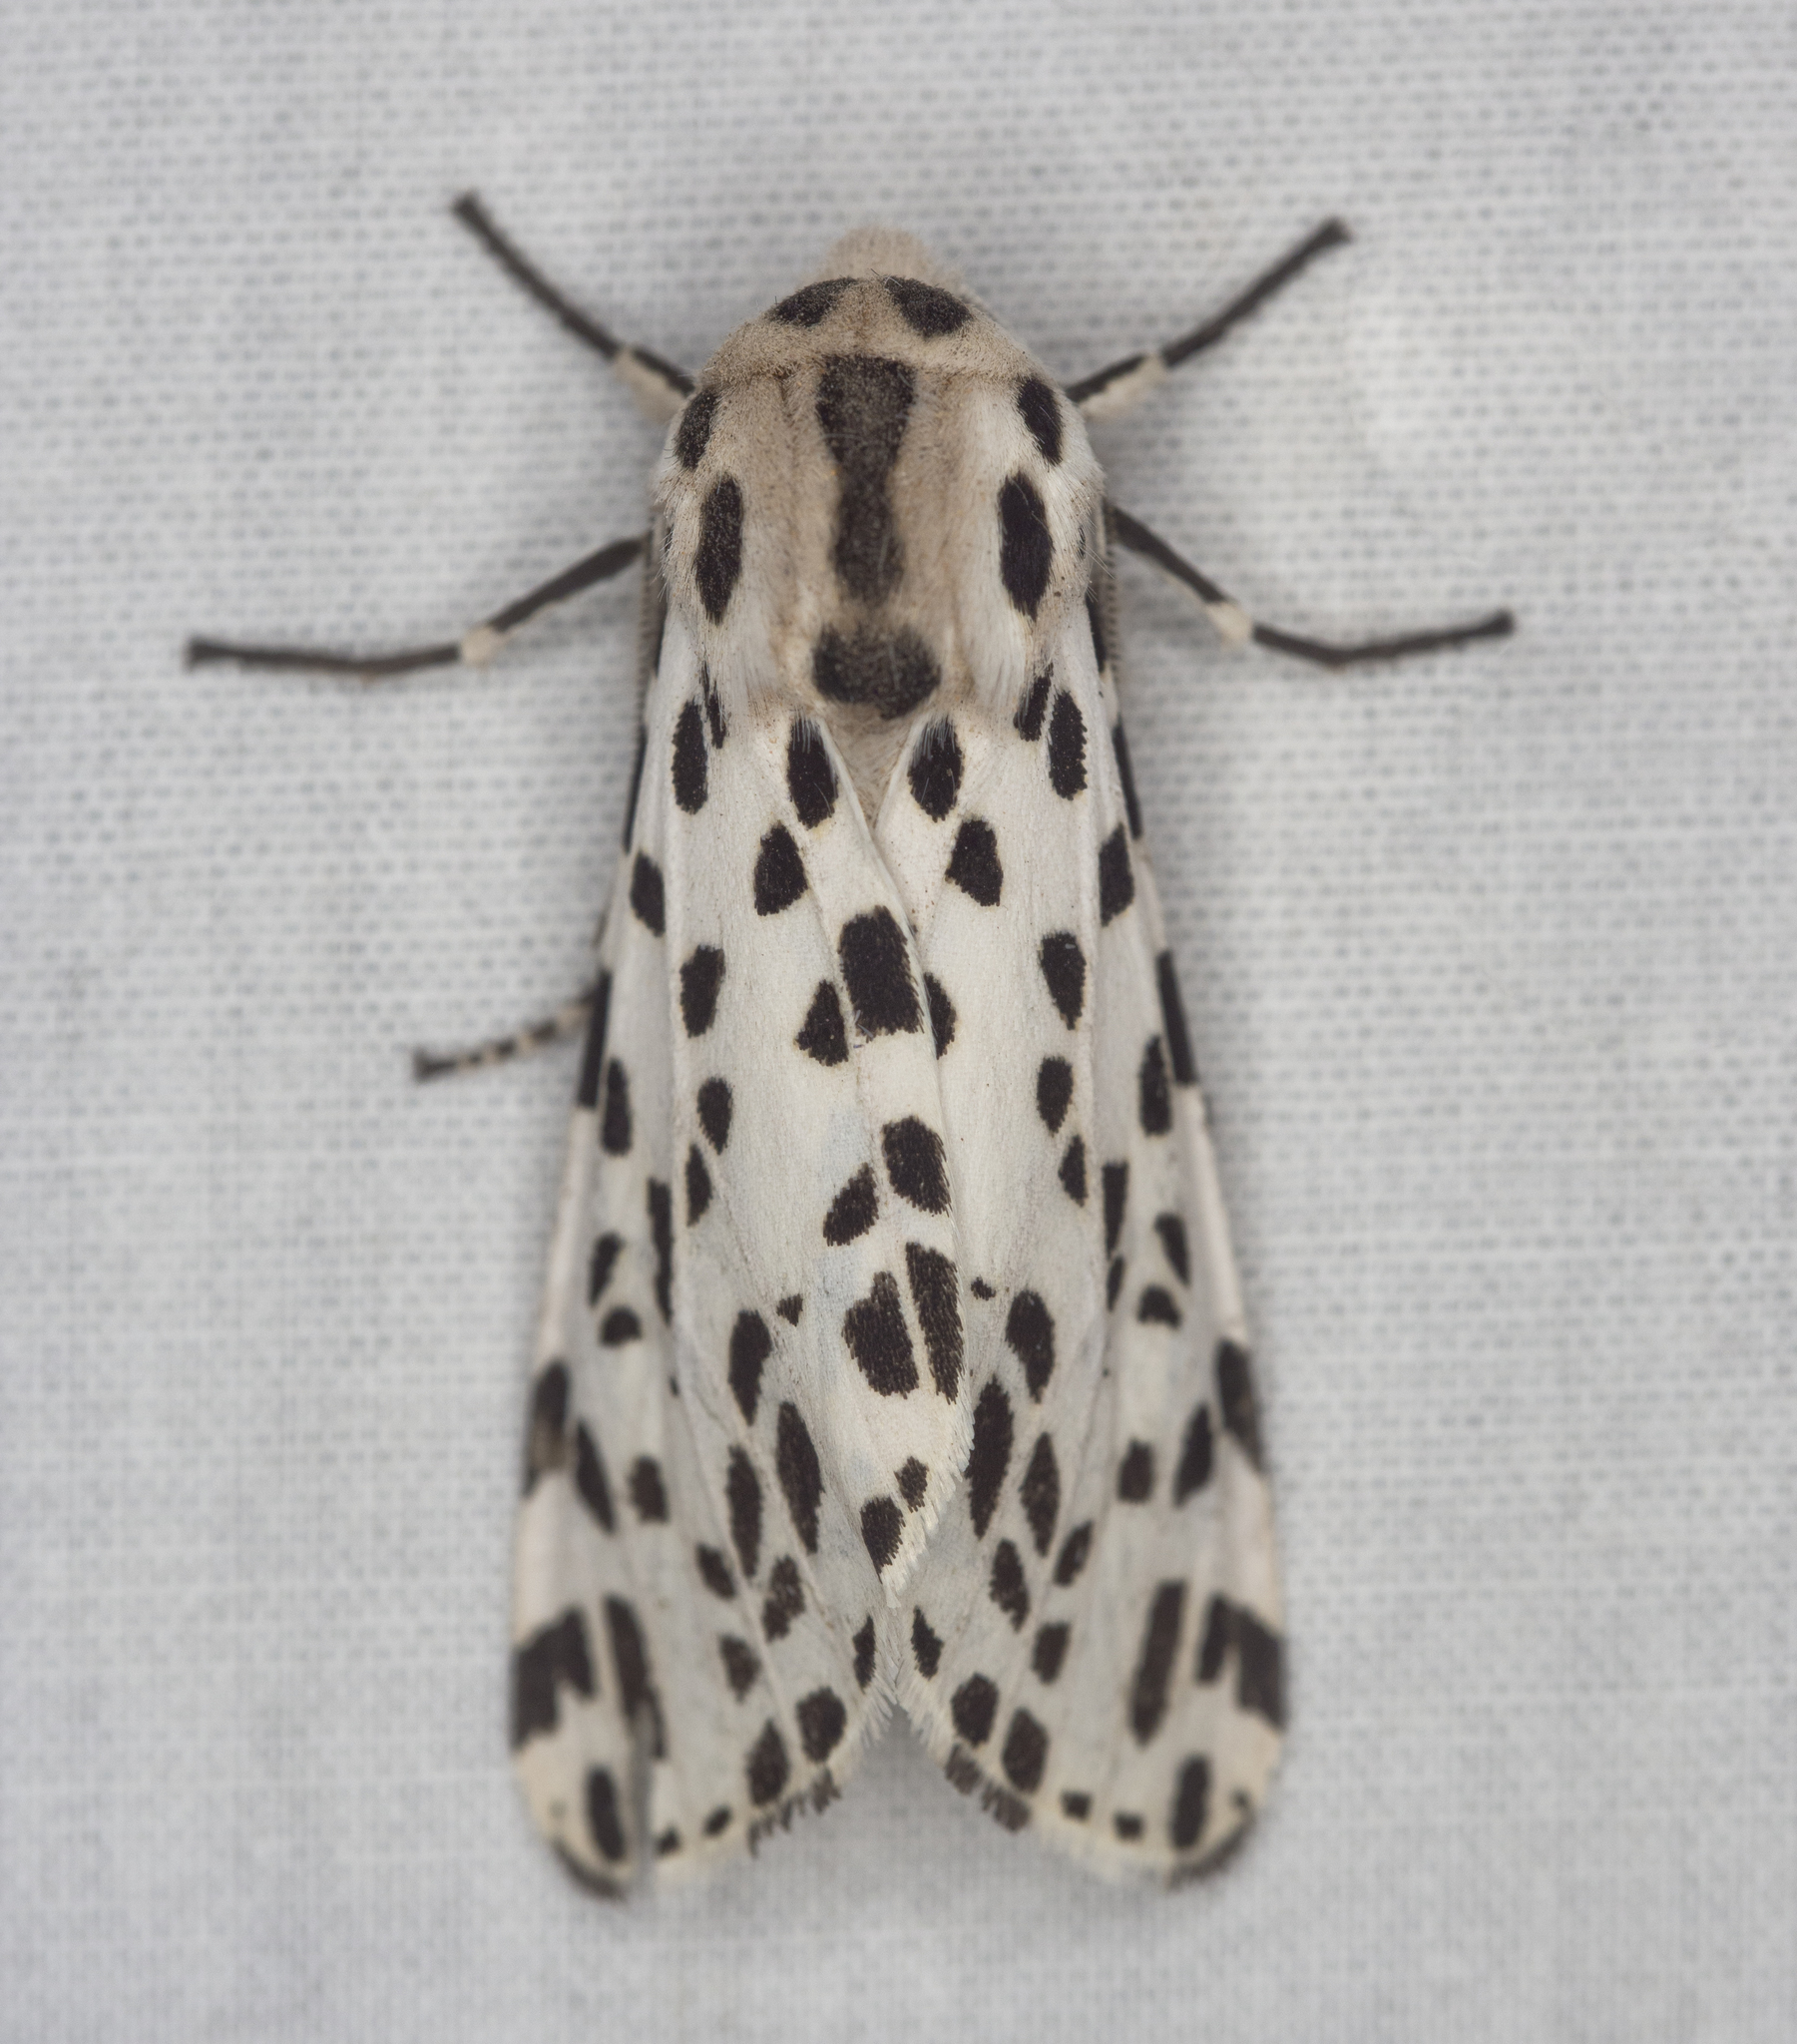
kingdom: Animalia
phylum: Arthropoda
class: Insecta
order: Lepidoptera
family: Erebidae
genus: Hypercompe
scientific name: Hypercompe permaculata
